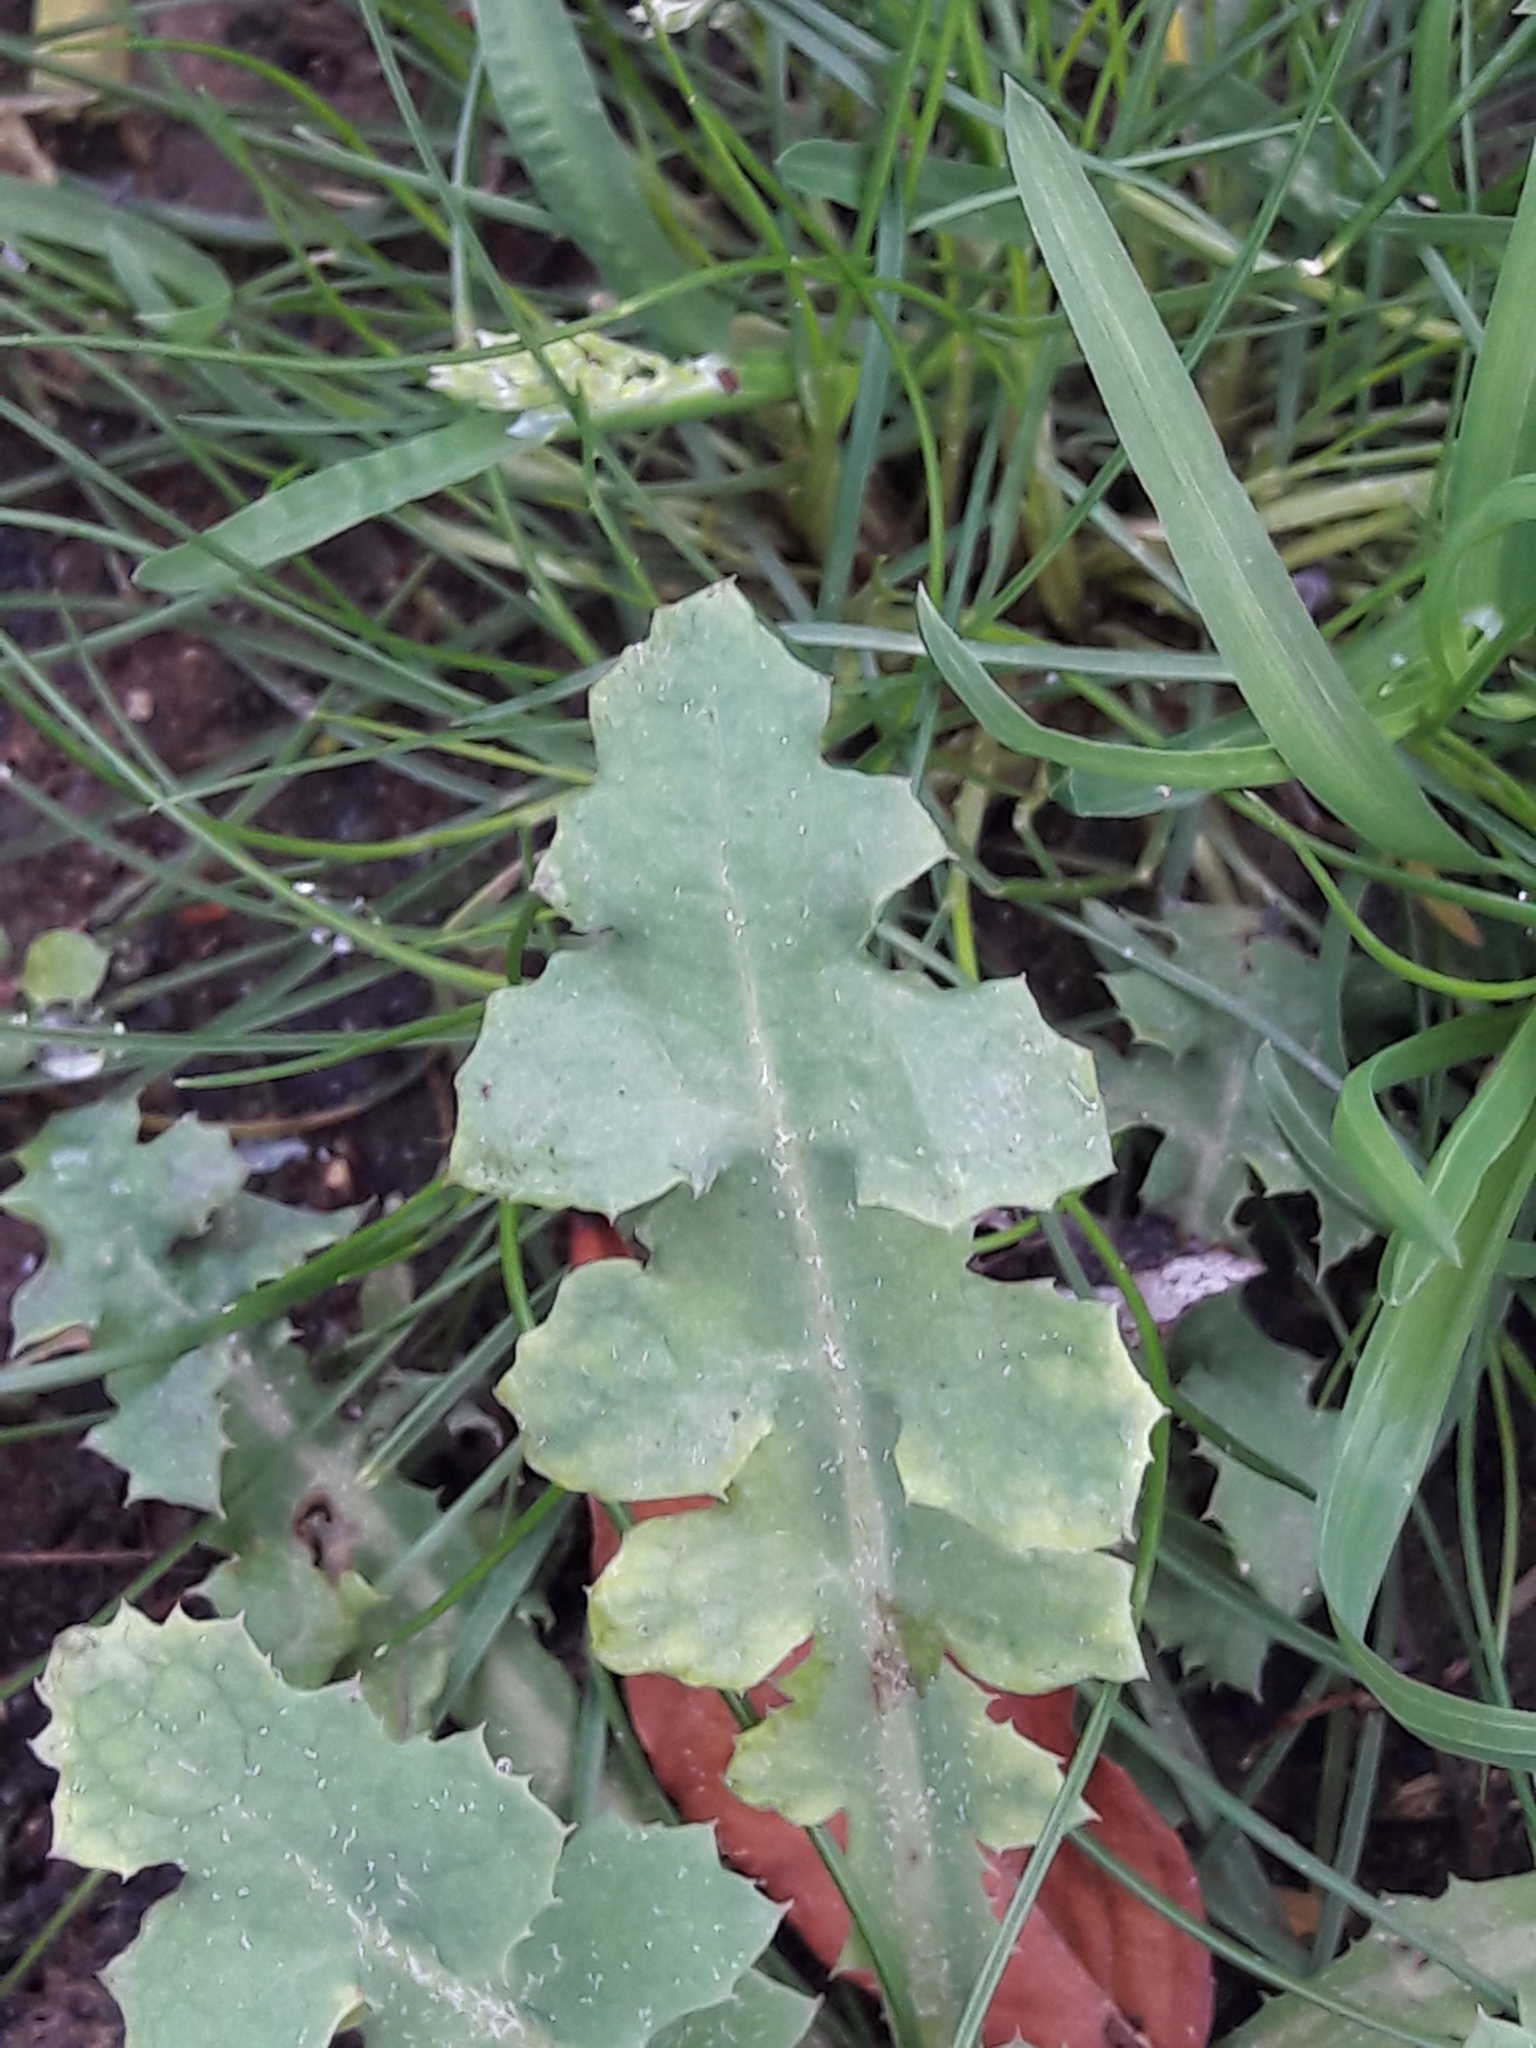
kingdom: Plantae
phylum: Tracheophyta
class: Magnoliopsida
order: Asterales
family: Asteraceae
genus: Sonchus
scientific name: Sonchus oleraceus
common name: Common sowthistle
